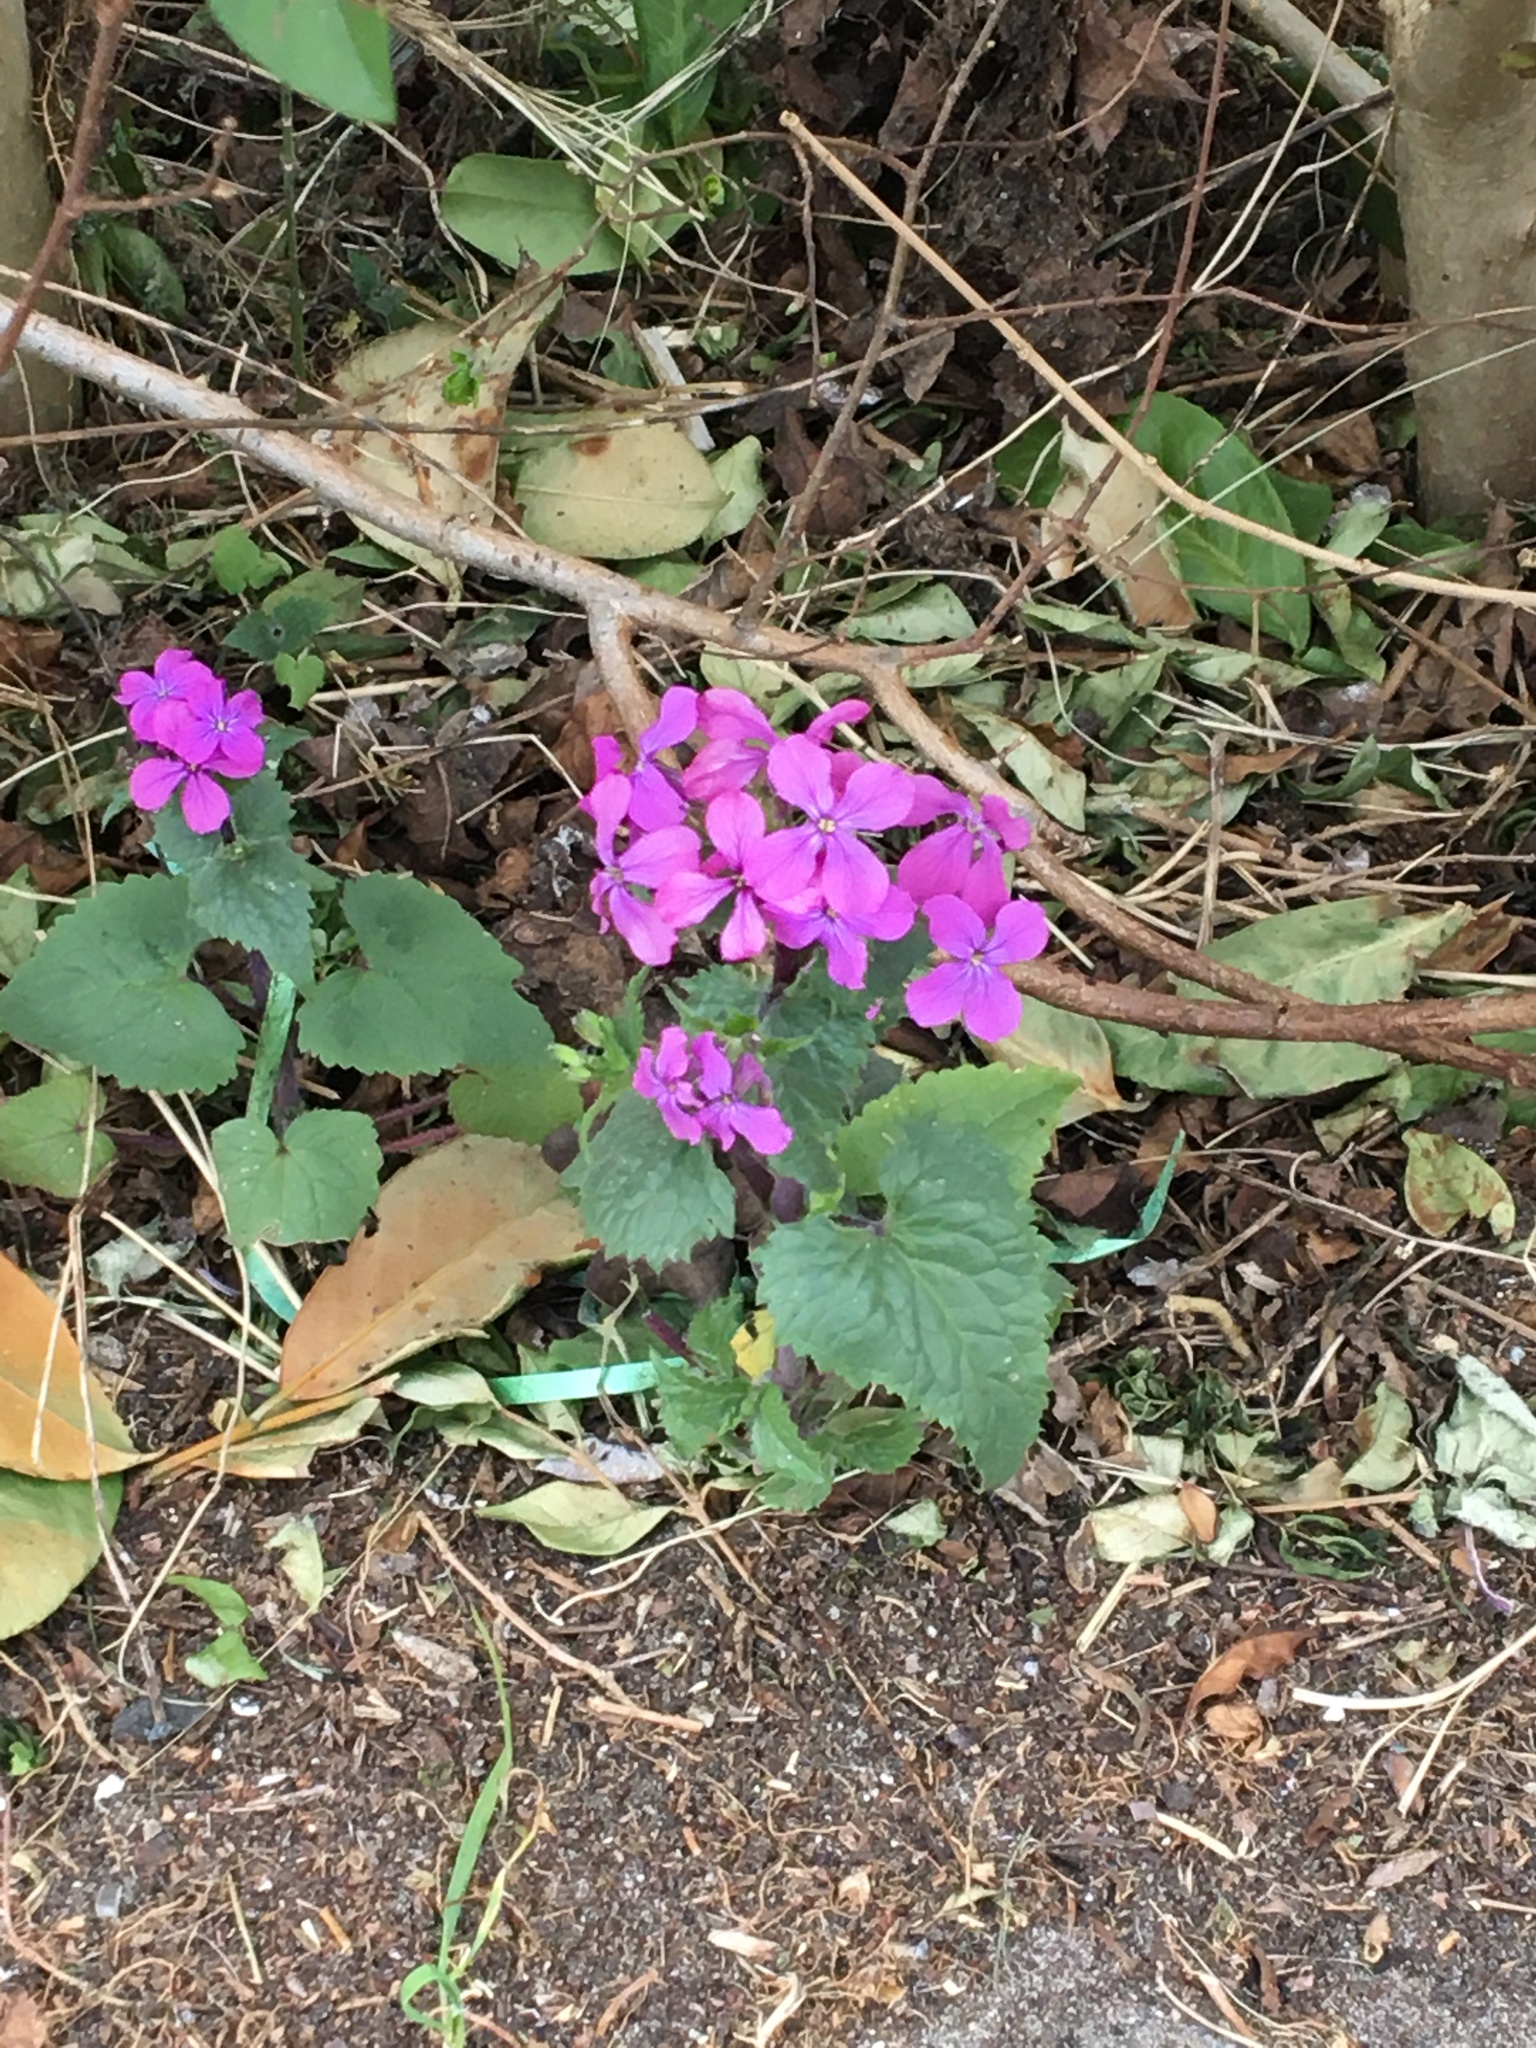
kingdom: Plantae
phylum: Tracheophyta
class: Magnoliopsida
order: Brassicales
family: Brassicaceae
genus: Lunaria
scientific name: Lunaria annua
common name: Honesty
